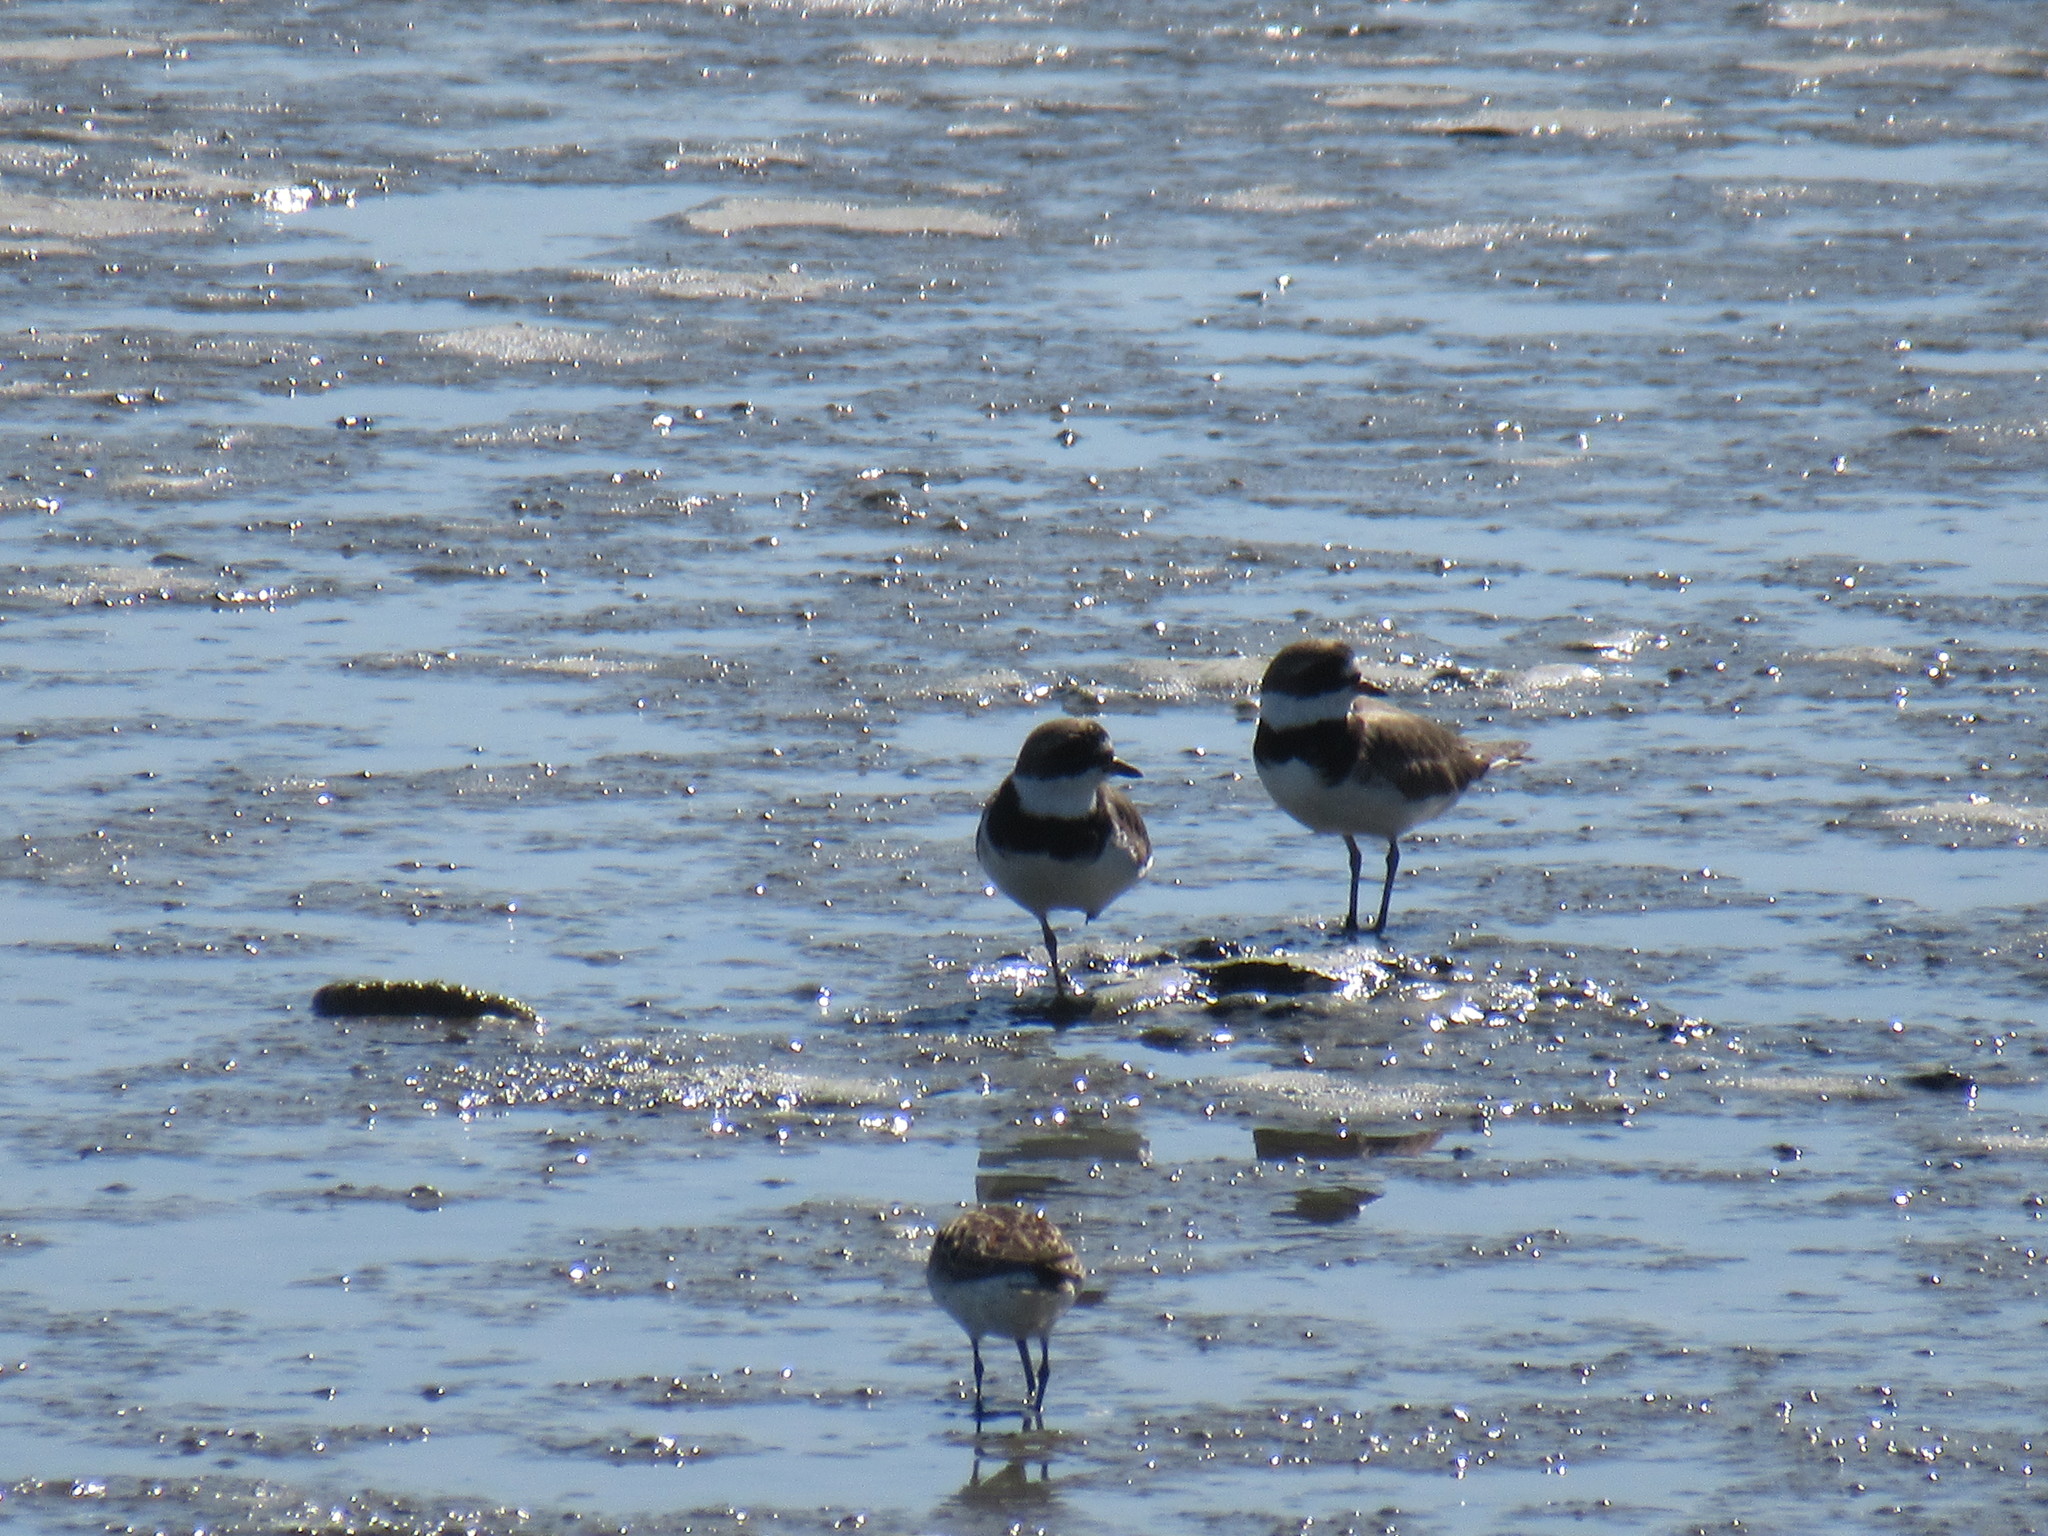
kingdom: Animalia
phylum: Chordata
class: Aves
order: Charadriiformes
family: Charadriidae
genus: Charadrius
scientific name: Charadrius semipalmatus
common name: Semipalmated plover
